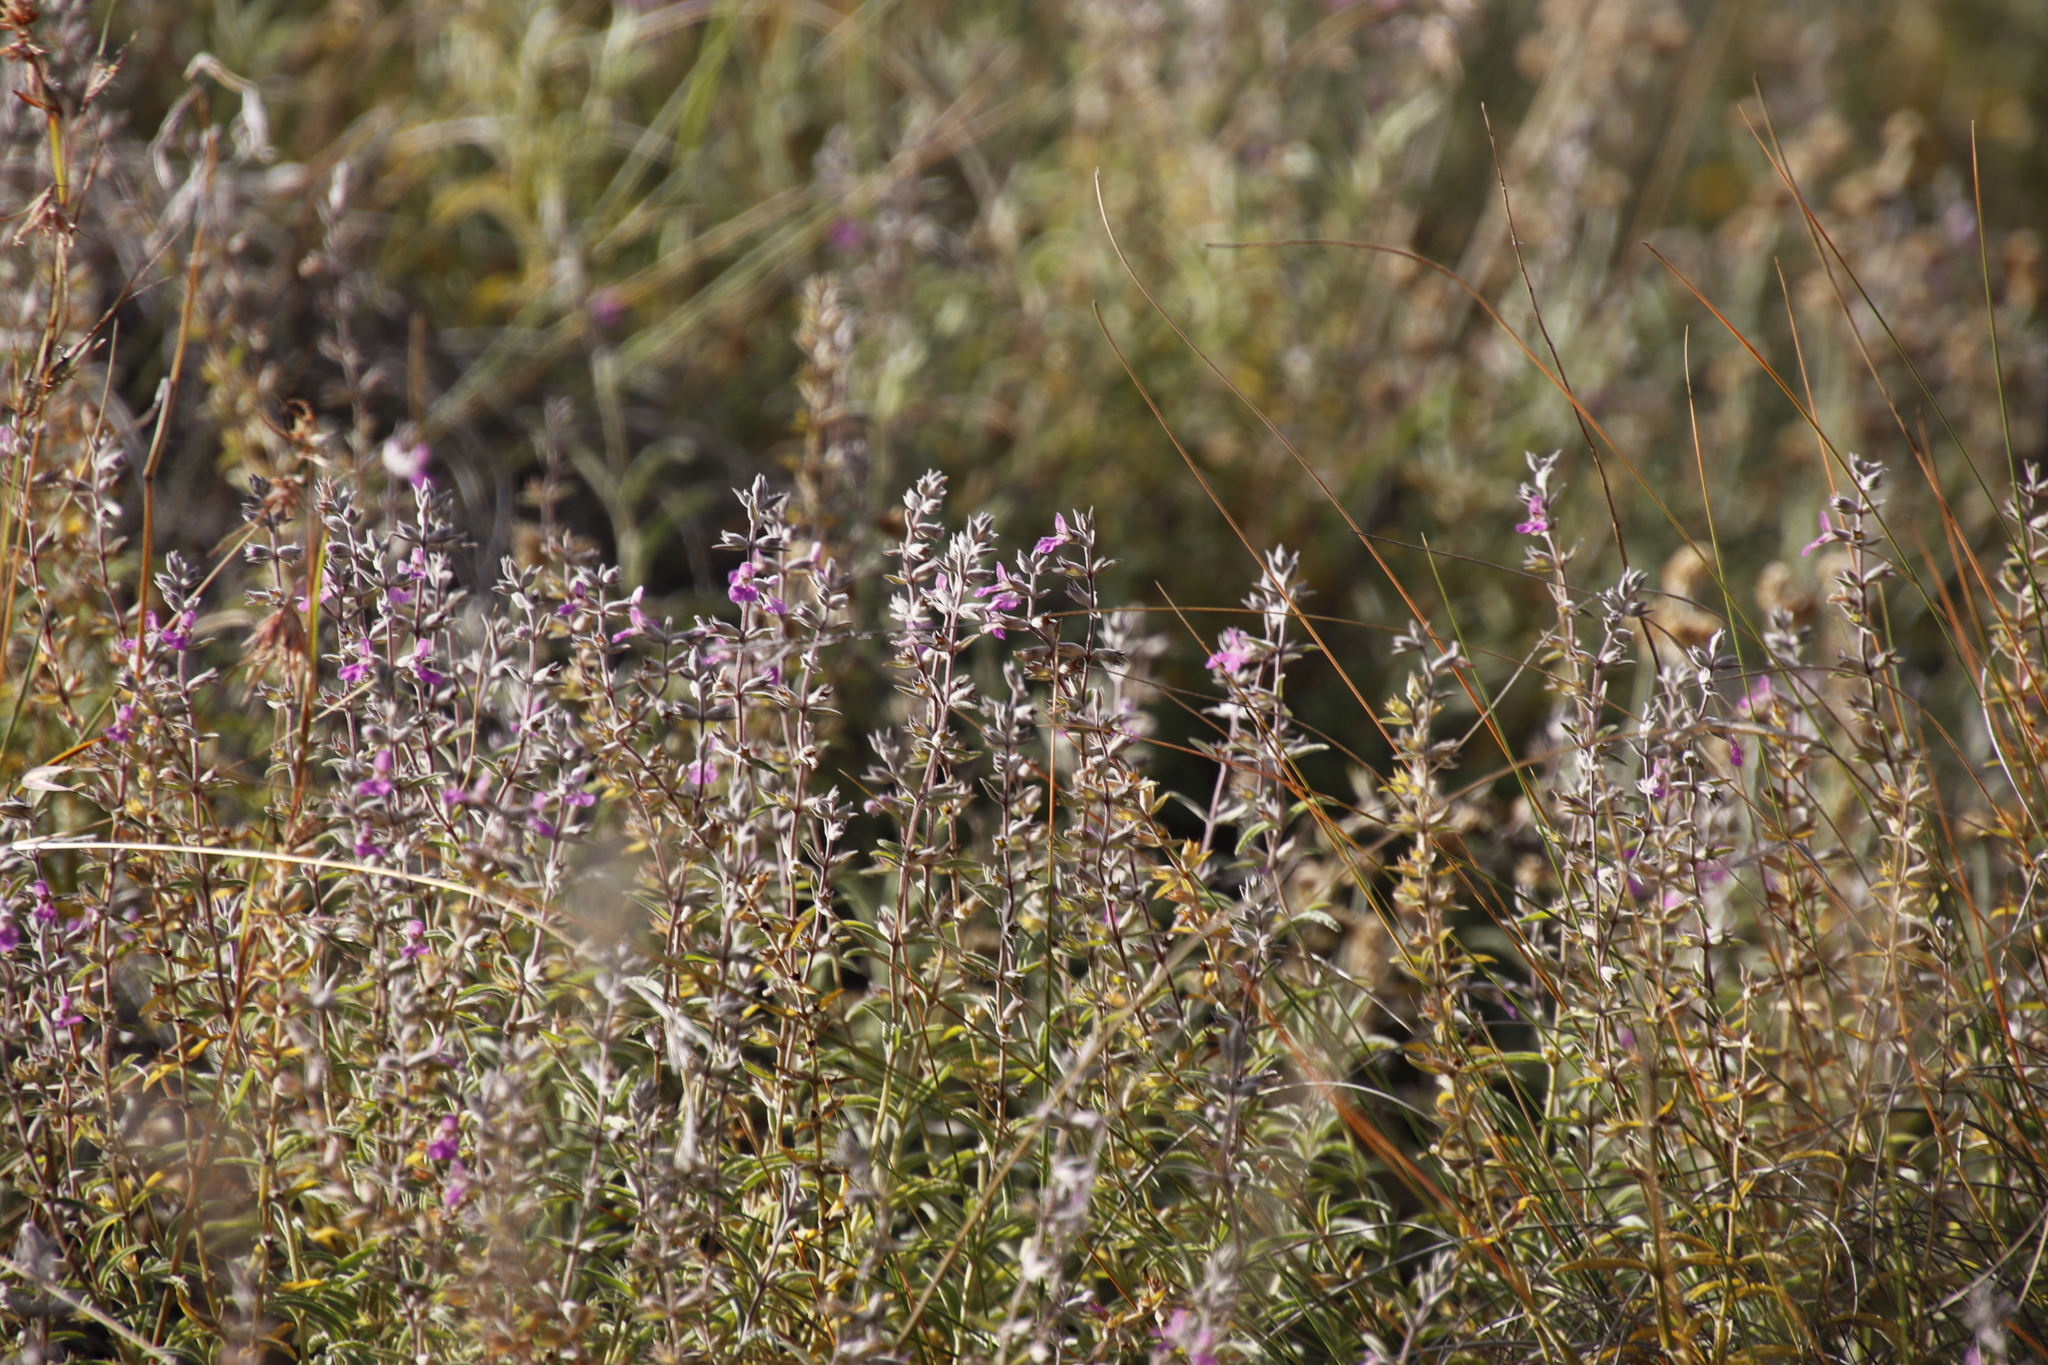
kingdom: Plantae
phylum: Tracheophyta
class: Magnoliopsida
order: Lamiales
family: Lamiaceae
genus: Stachys
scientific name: Stachys dregeana
